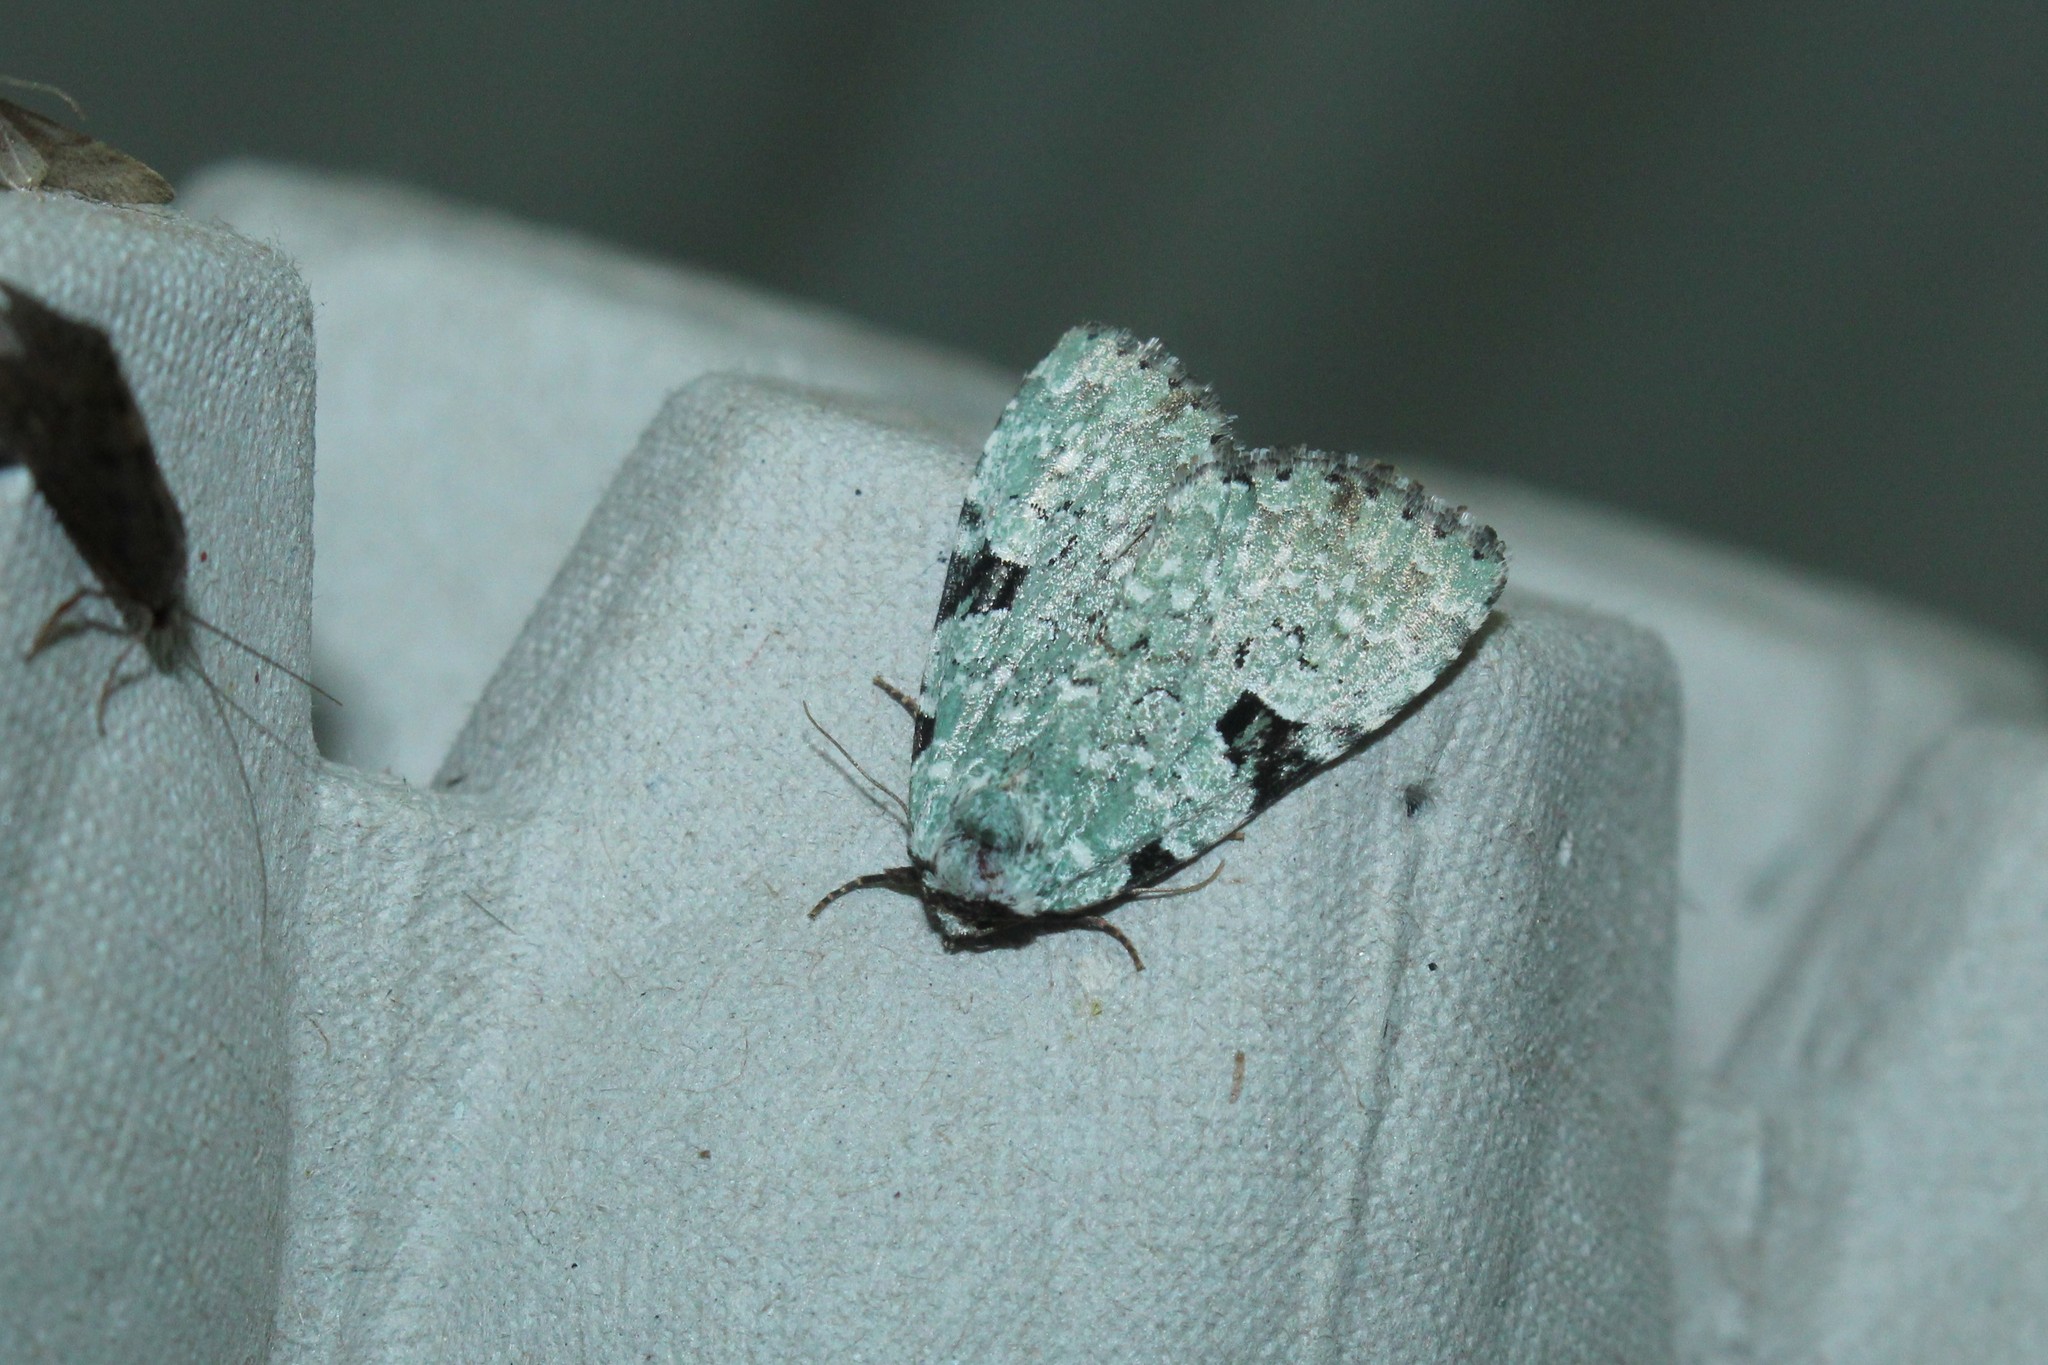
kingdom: Animalia
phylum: Arthropoda
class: Insecta
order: Lepidoptera
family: Noctuidae
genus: Leuconycta
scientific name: Leuconycta diphteroides
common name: Green leuconycta moth
